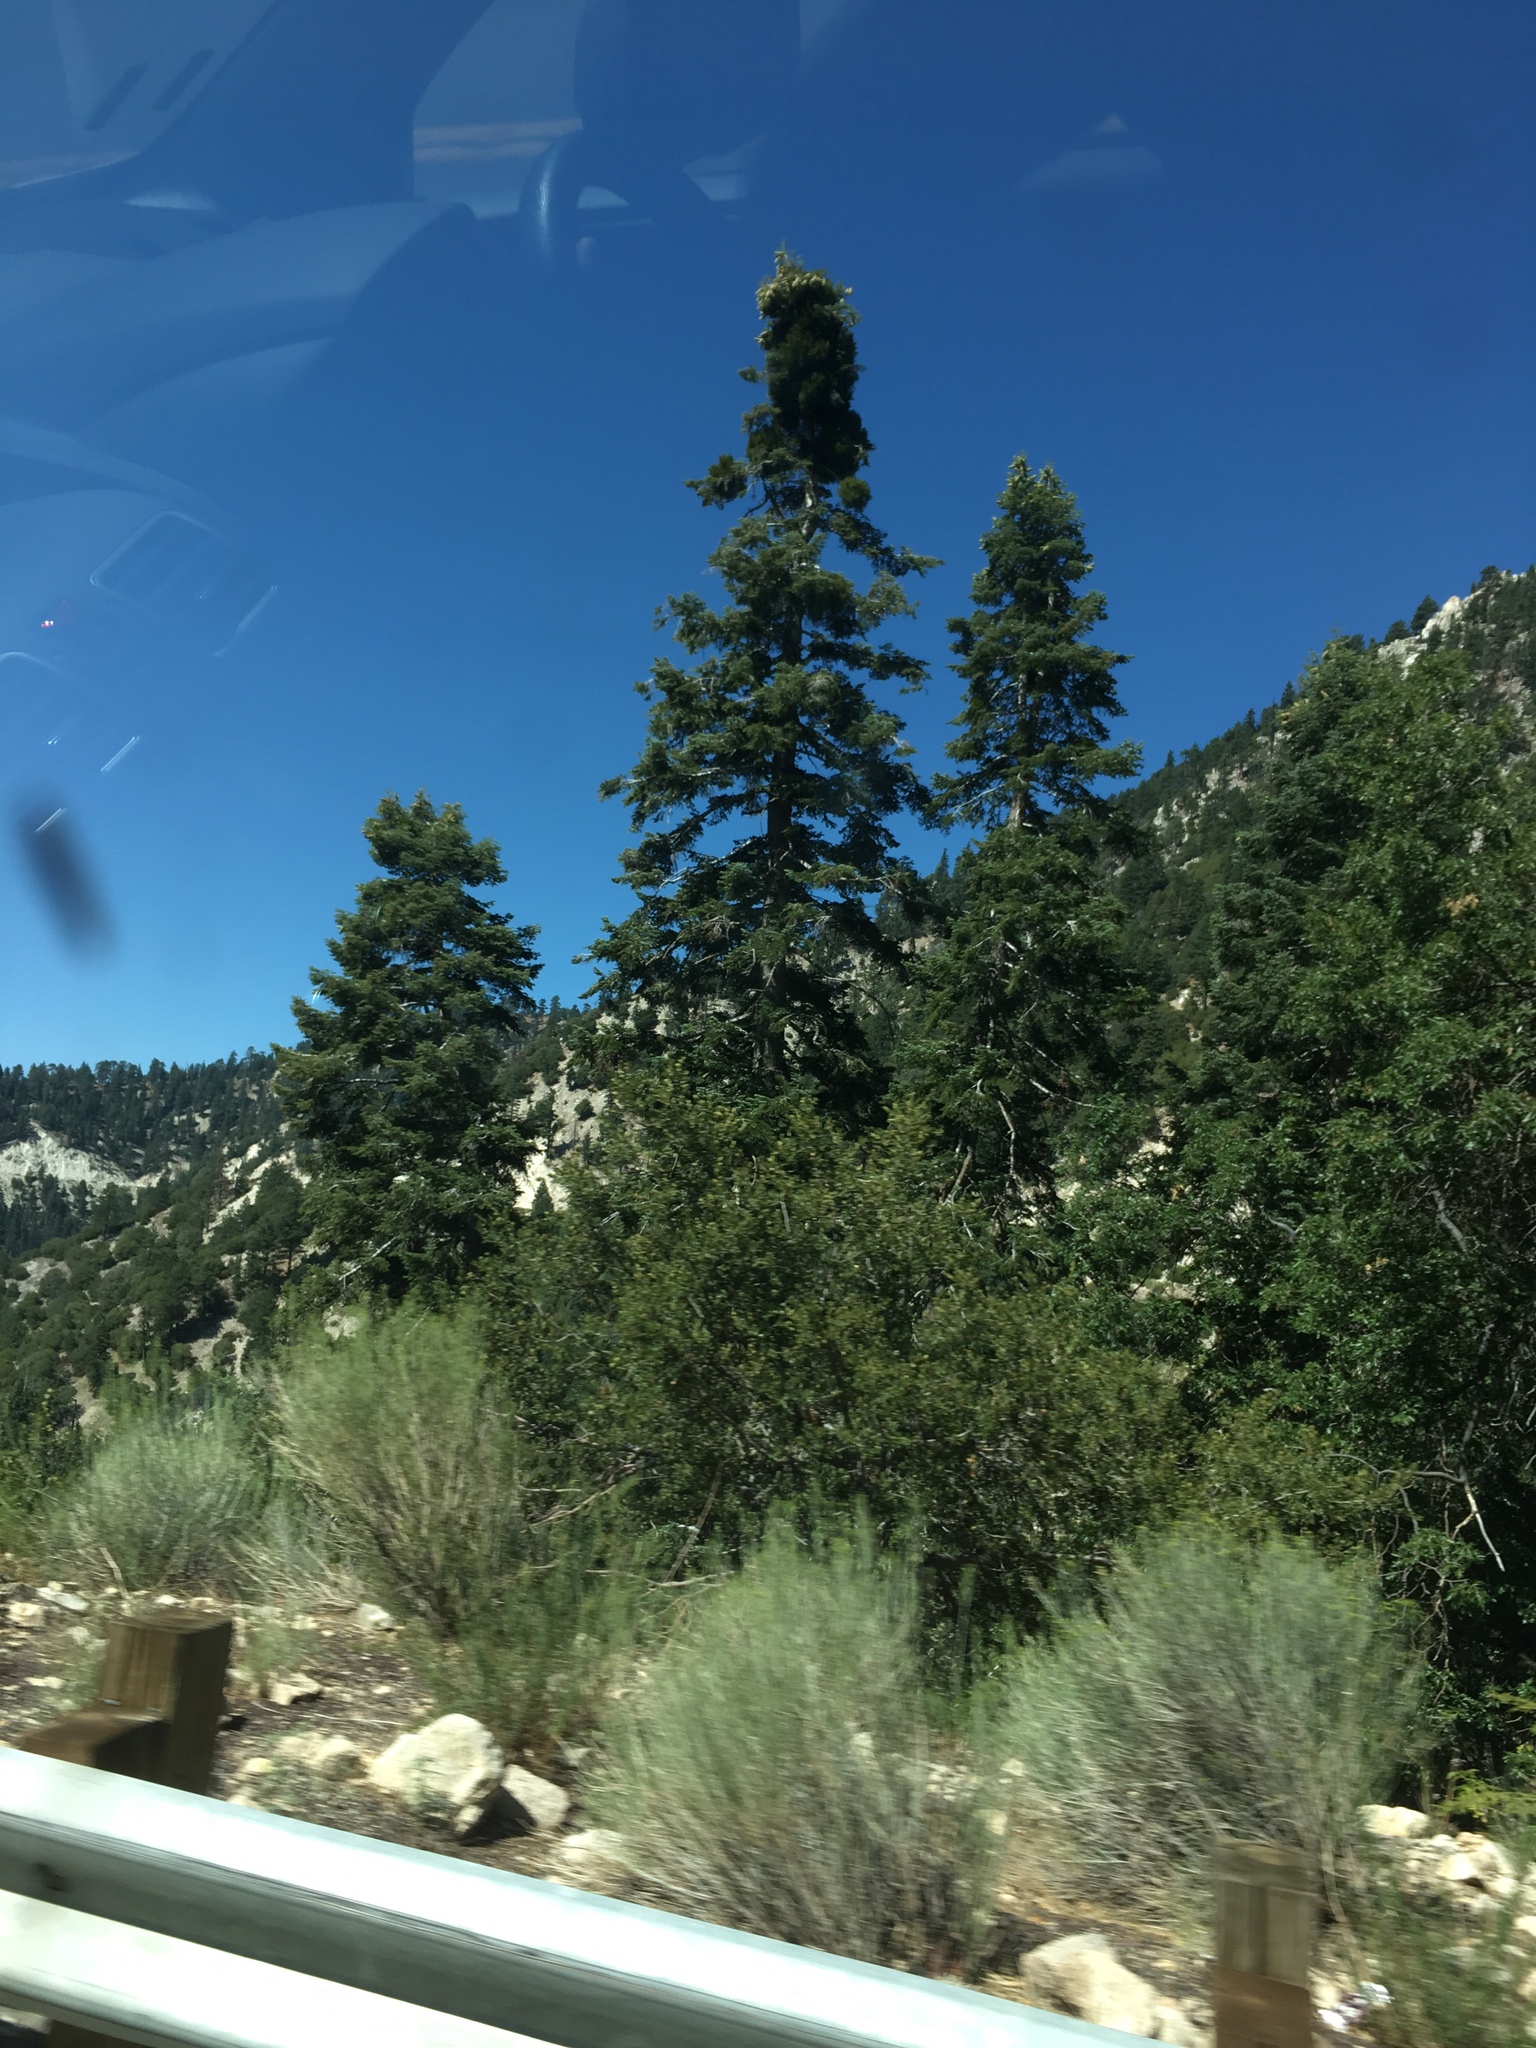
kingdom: Plantae
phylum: Tracheophyta
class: Pinopsida
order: Pinales
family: Pinaceae
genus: Abies
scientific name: Abies concolor
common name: Colorado fir
